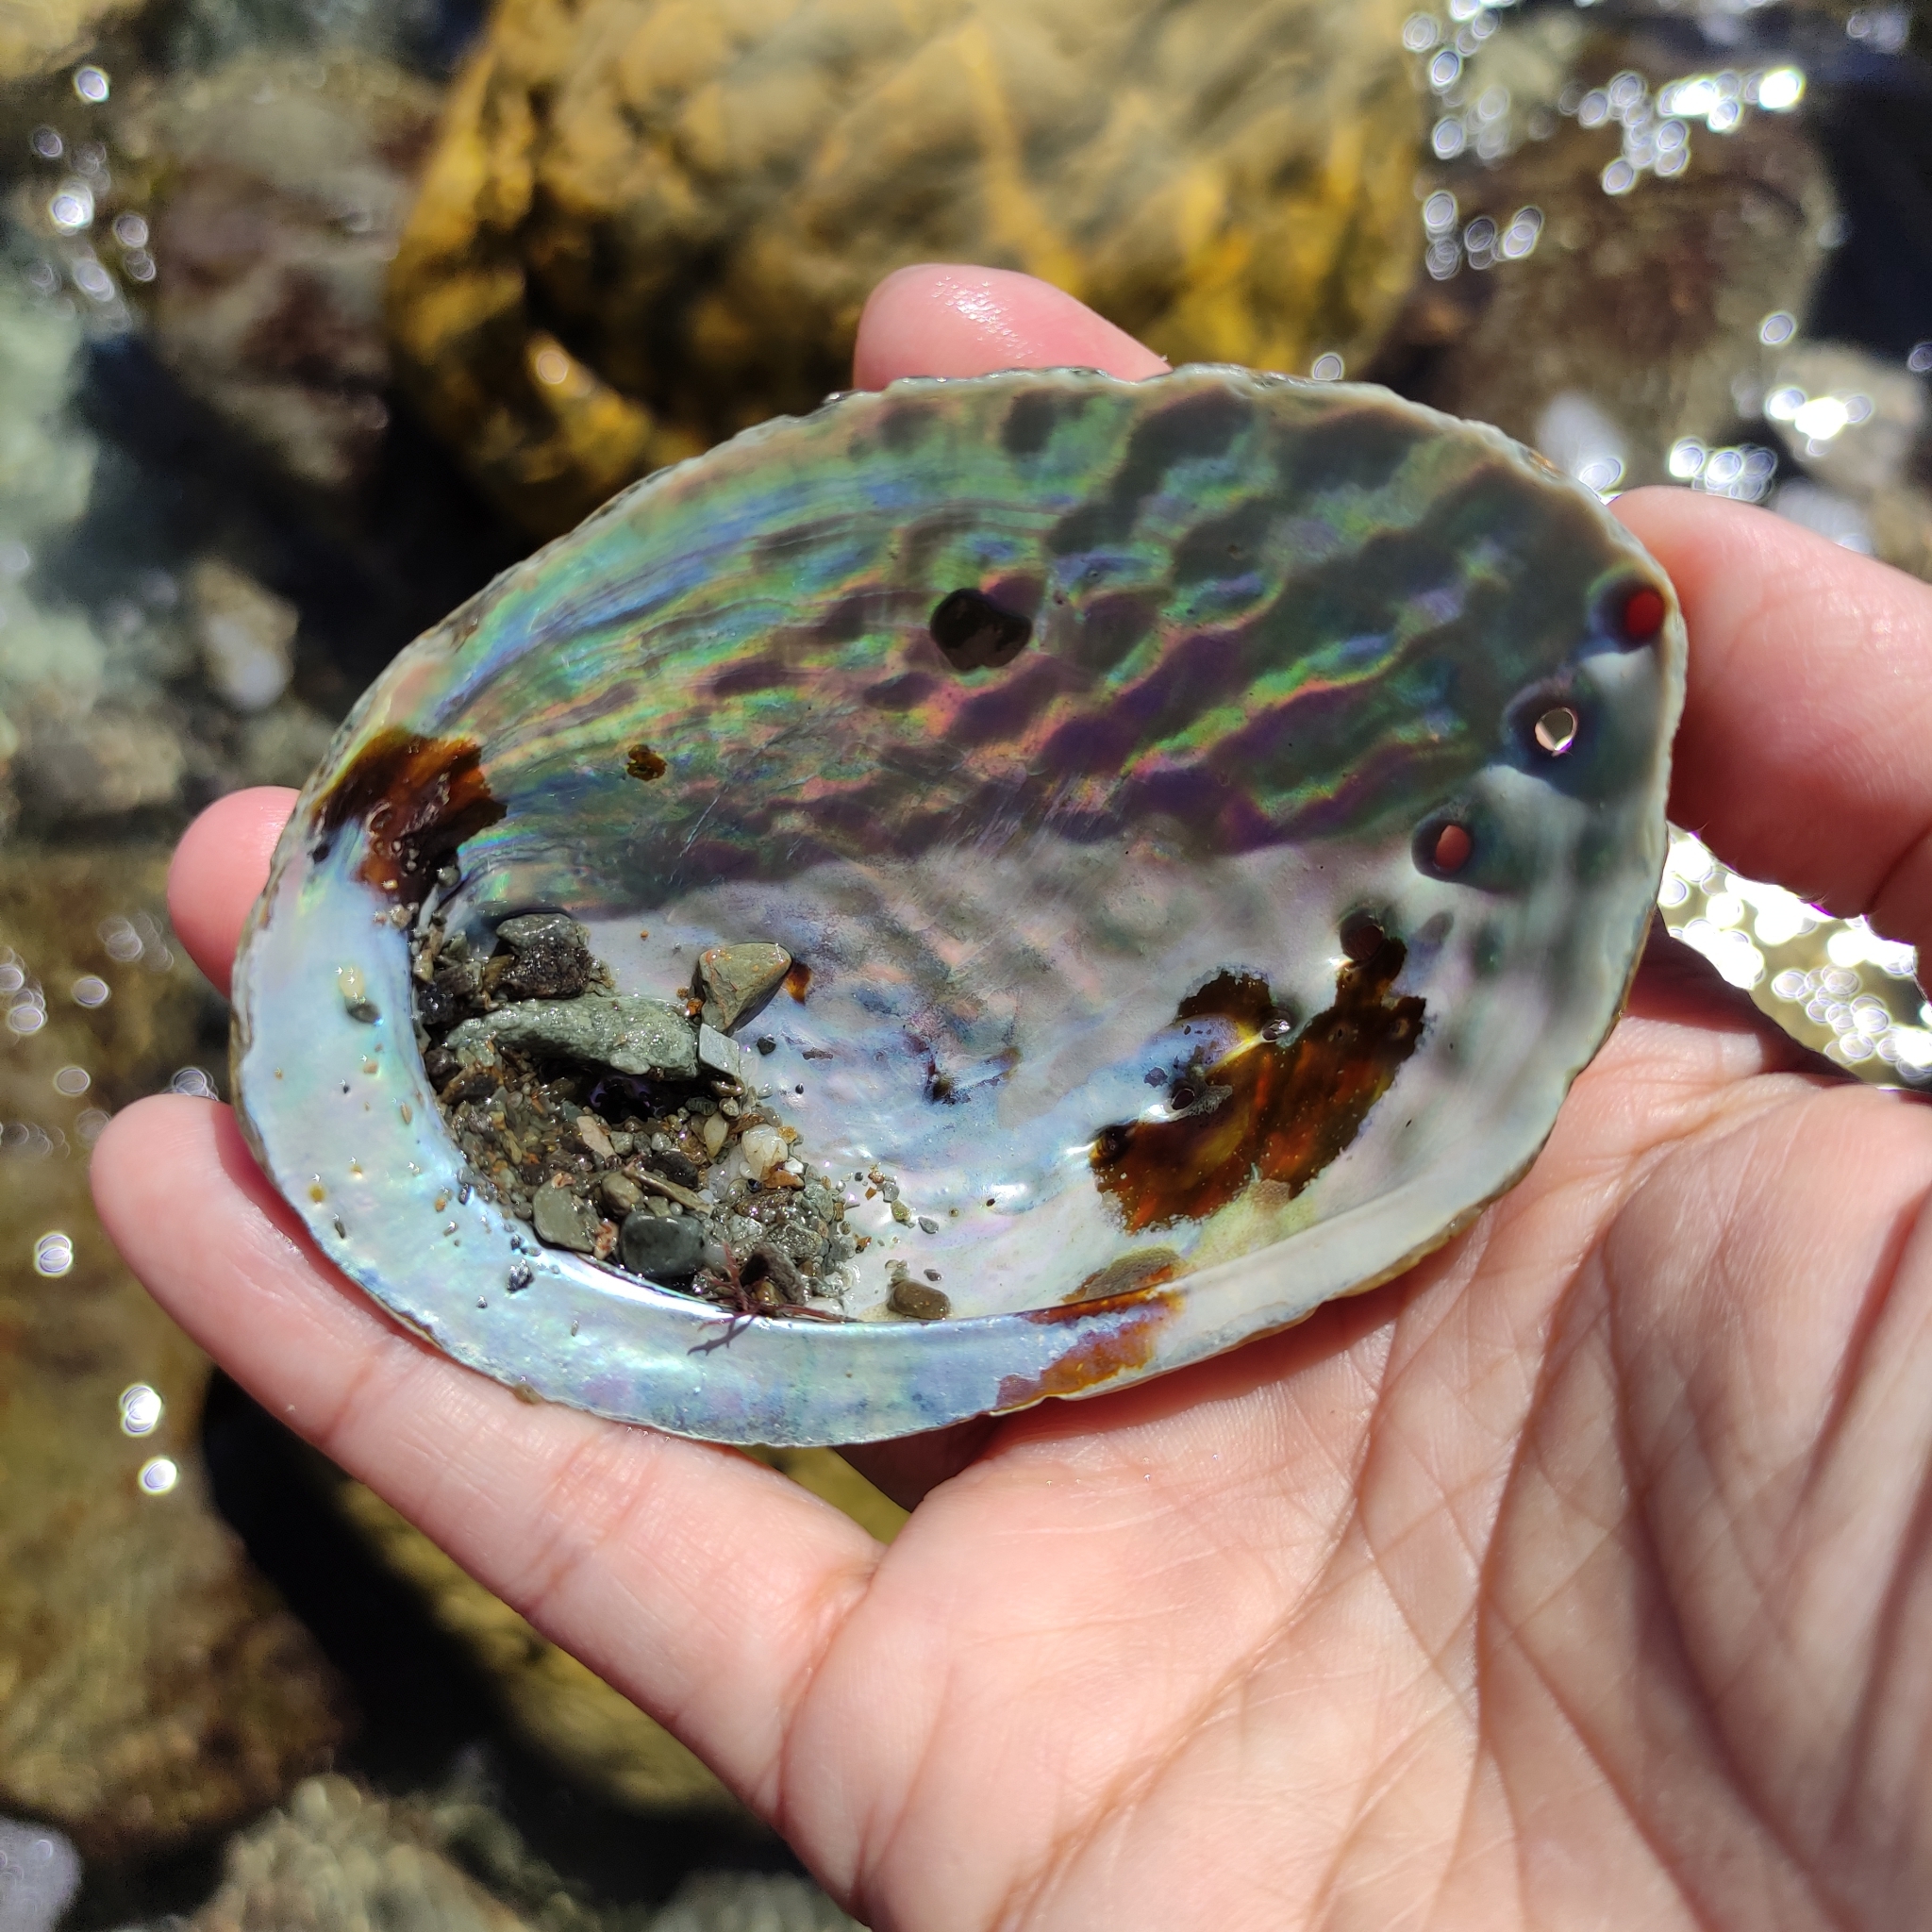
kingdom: Animalia
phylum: Mollusca
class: Gastropoda
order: Lepetellida
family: Haliotidae
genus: Haliotis
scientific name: Haliotis iris
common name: Abalone
